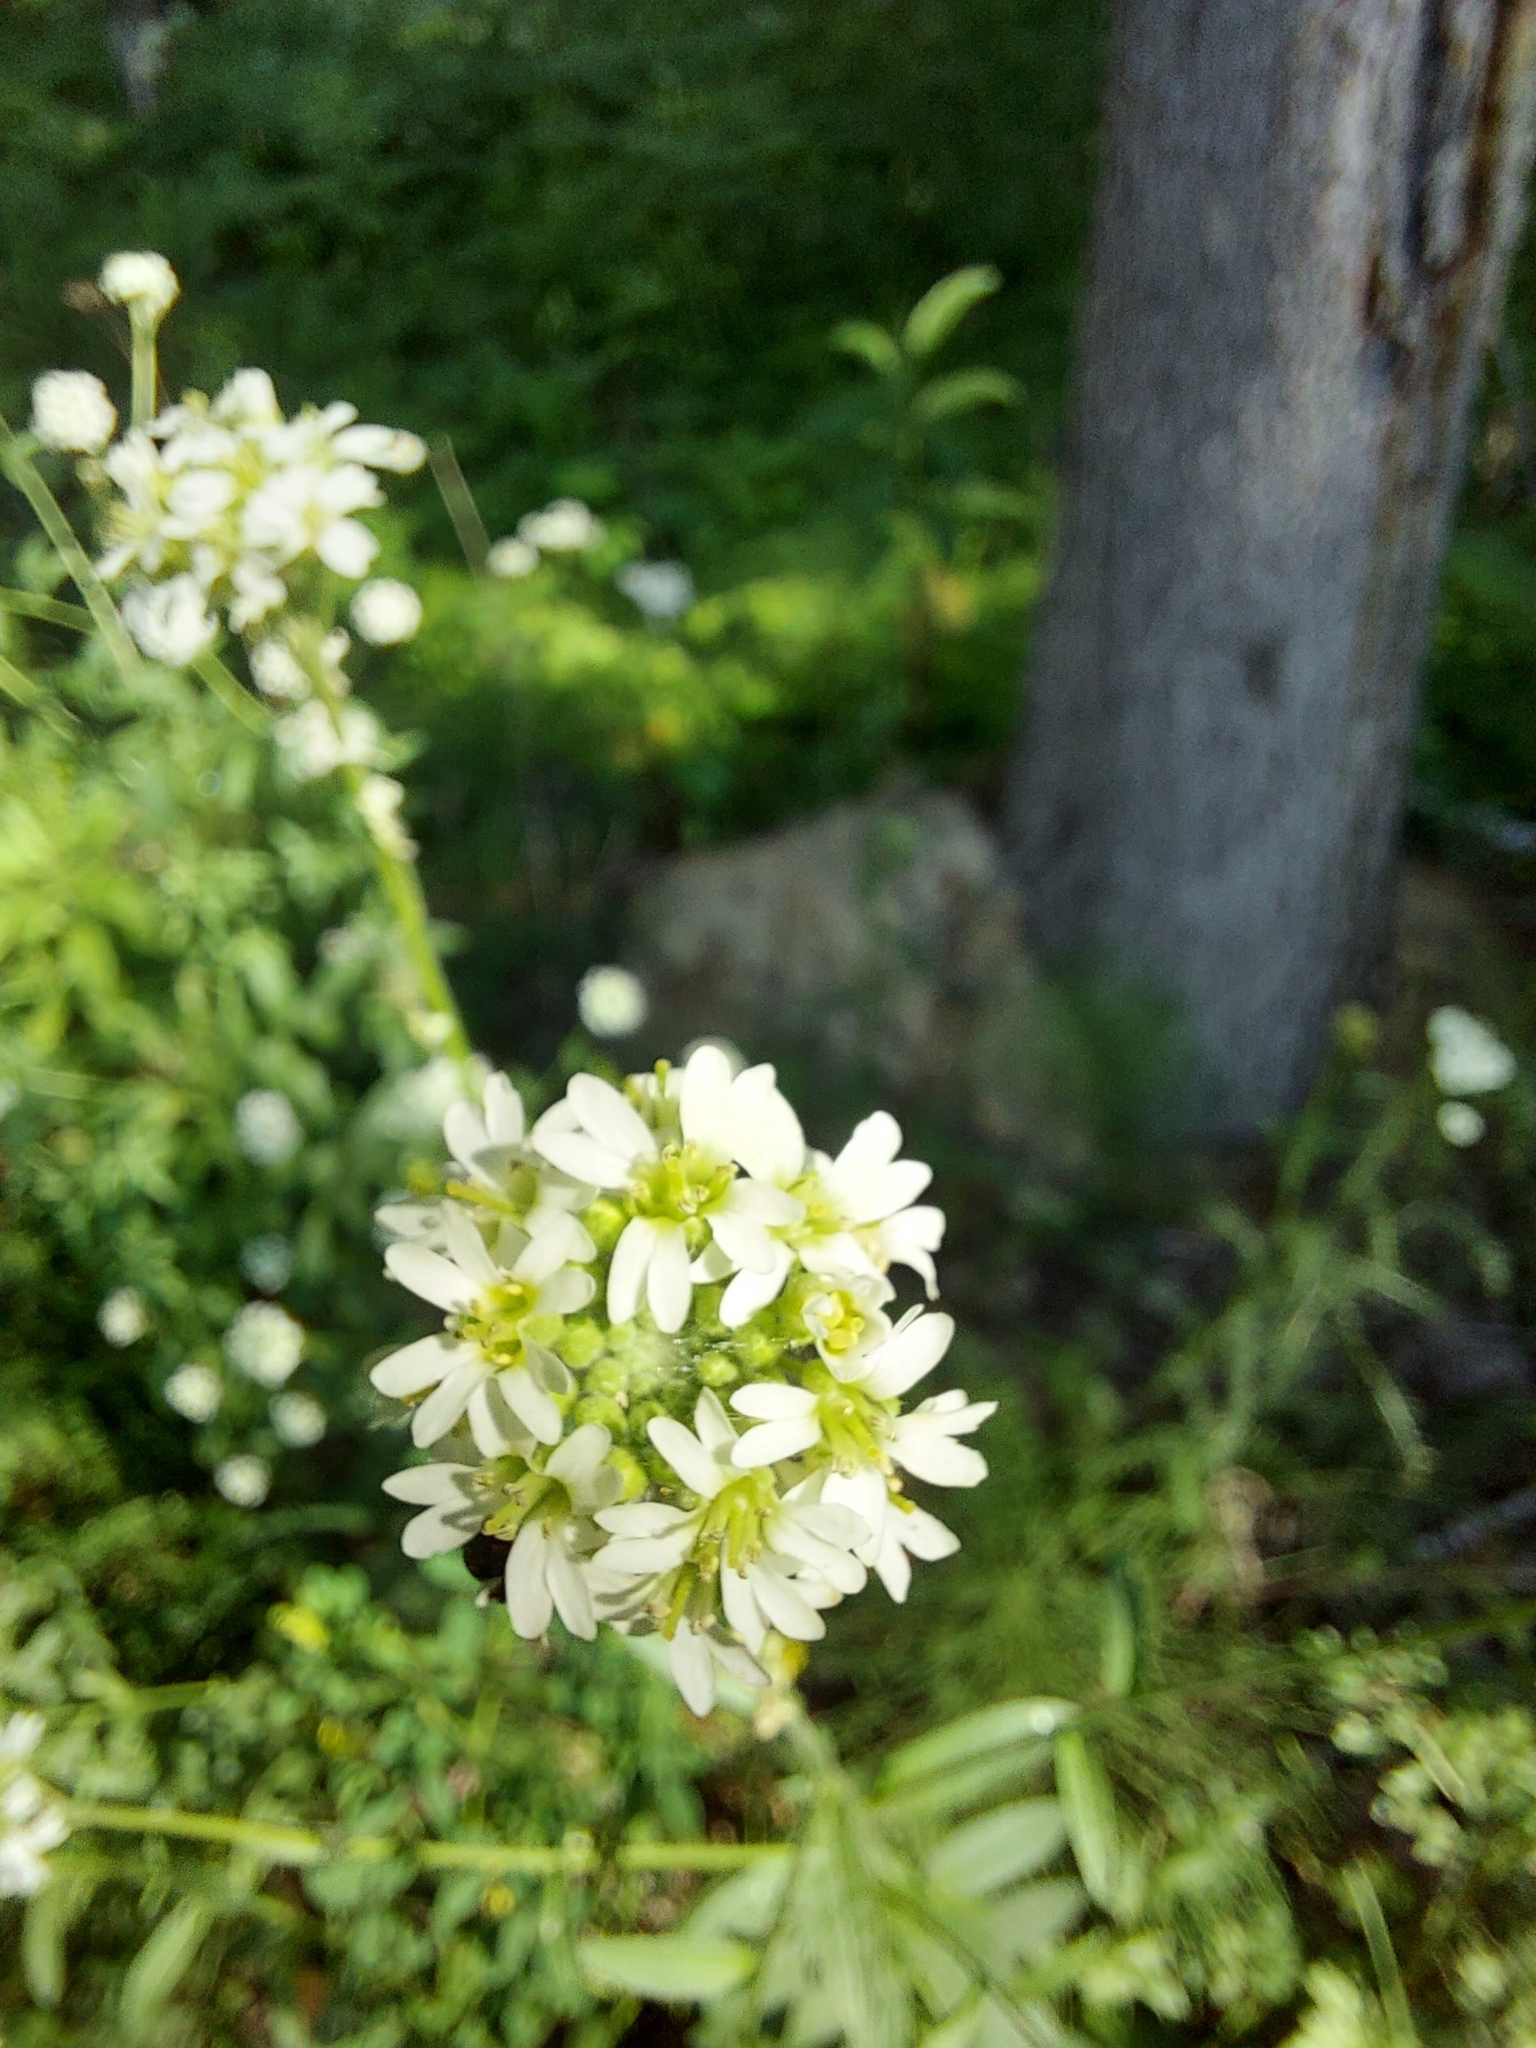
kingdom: Plantae
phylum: Tracheophyta
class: Magnoliopsida
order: Brassicales
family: Brassicaceae
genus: Berteroa
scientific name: Berteroa incana
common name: Hoary alison
